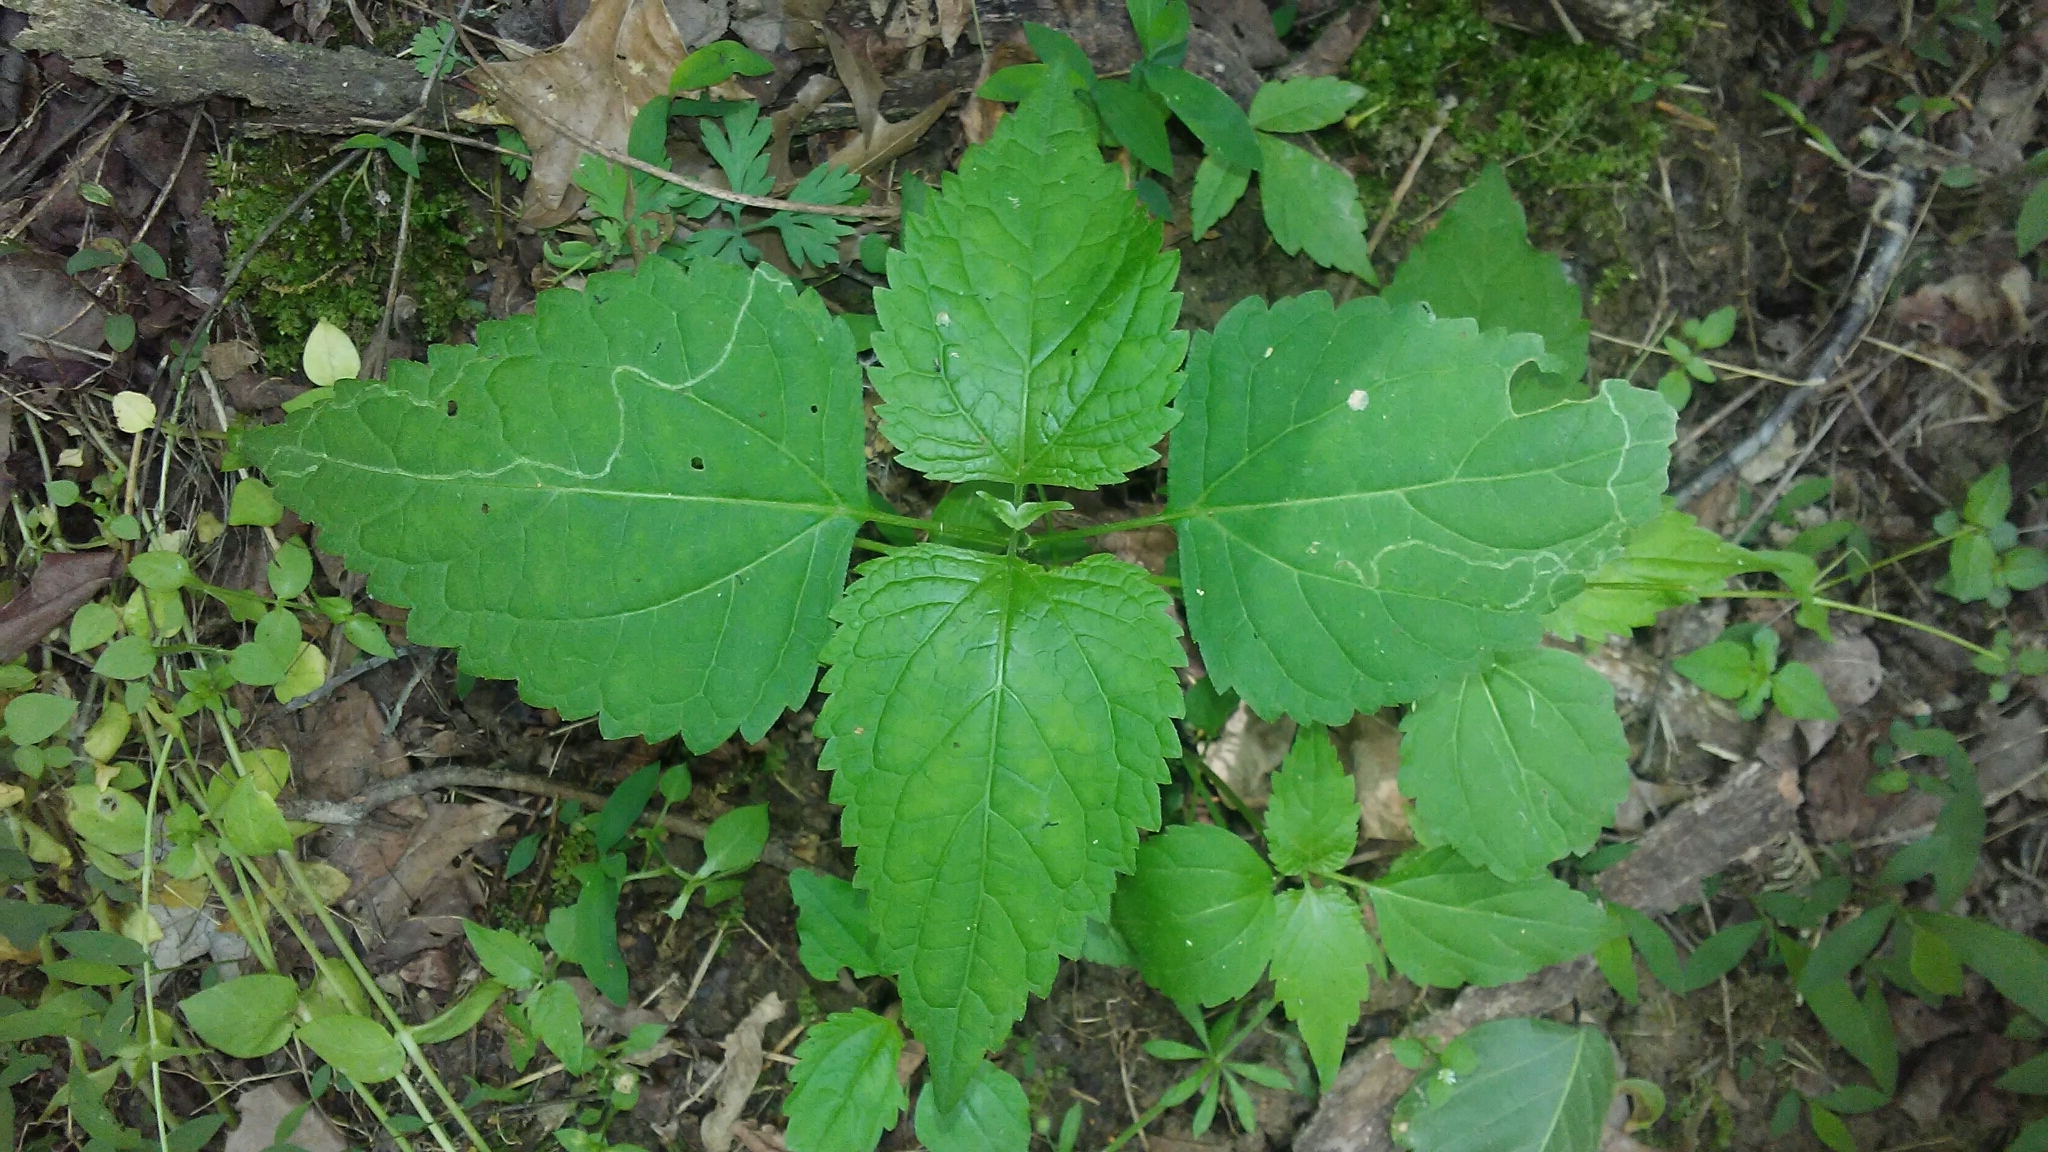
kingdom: Plantae
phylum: Tracheophyta
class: Magnoliopsida
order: Asterales
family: Asteraceae
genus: Ageratina
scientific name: Ageratina altissima
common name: White snakeroot
